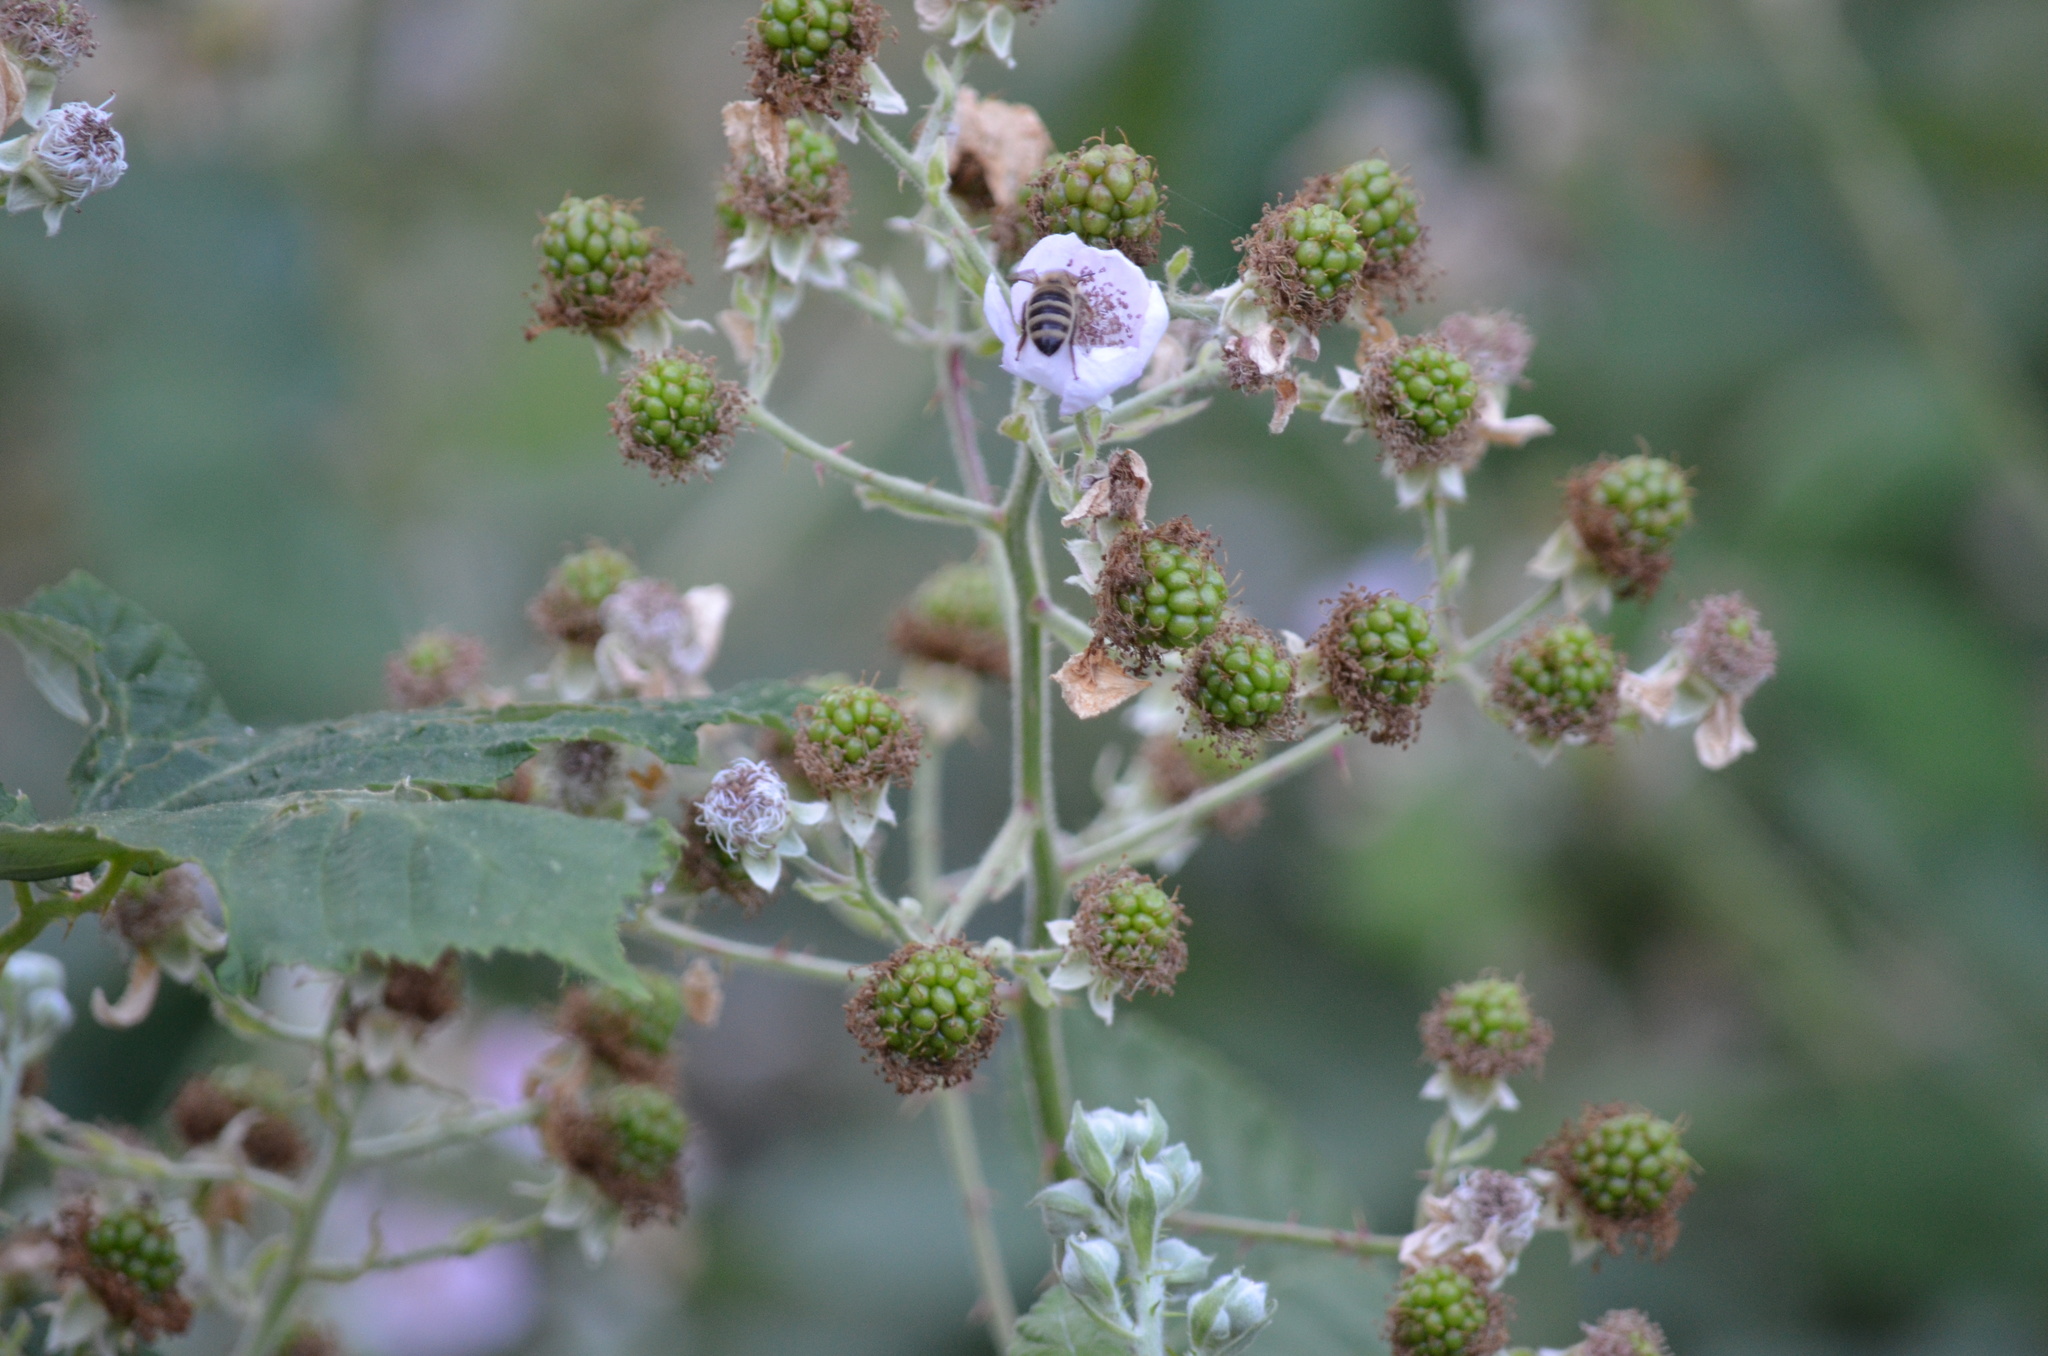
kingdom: Animalia
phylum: Arthropoda
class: Insecta
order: Hymenoptera
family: Apidae
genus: Apis
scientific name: Apis mellifera
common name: Honey bee
